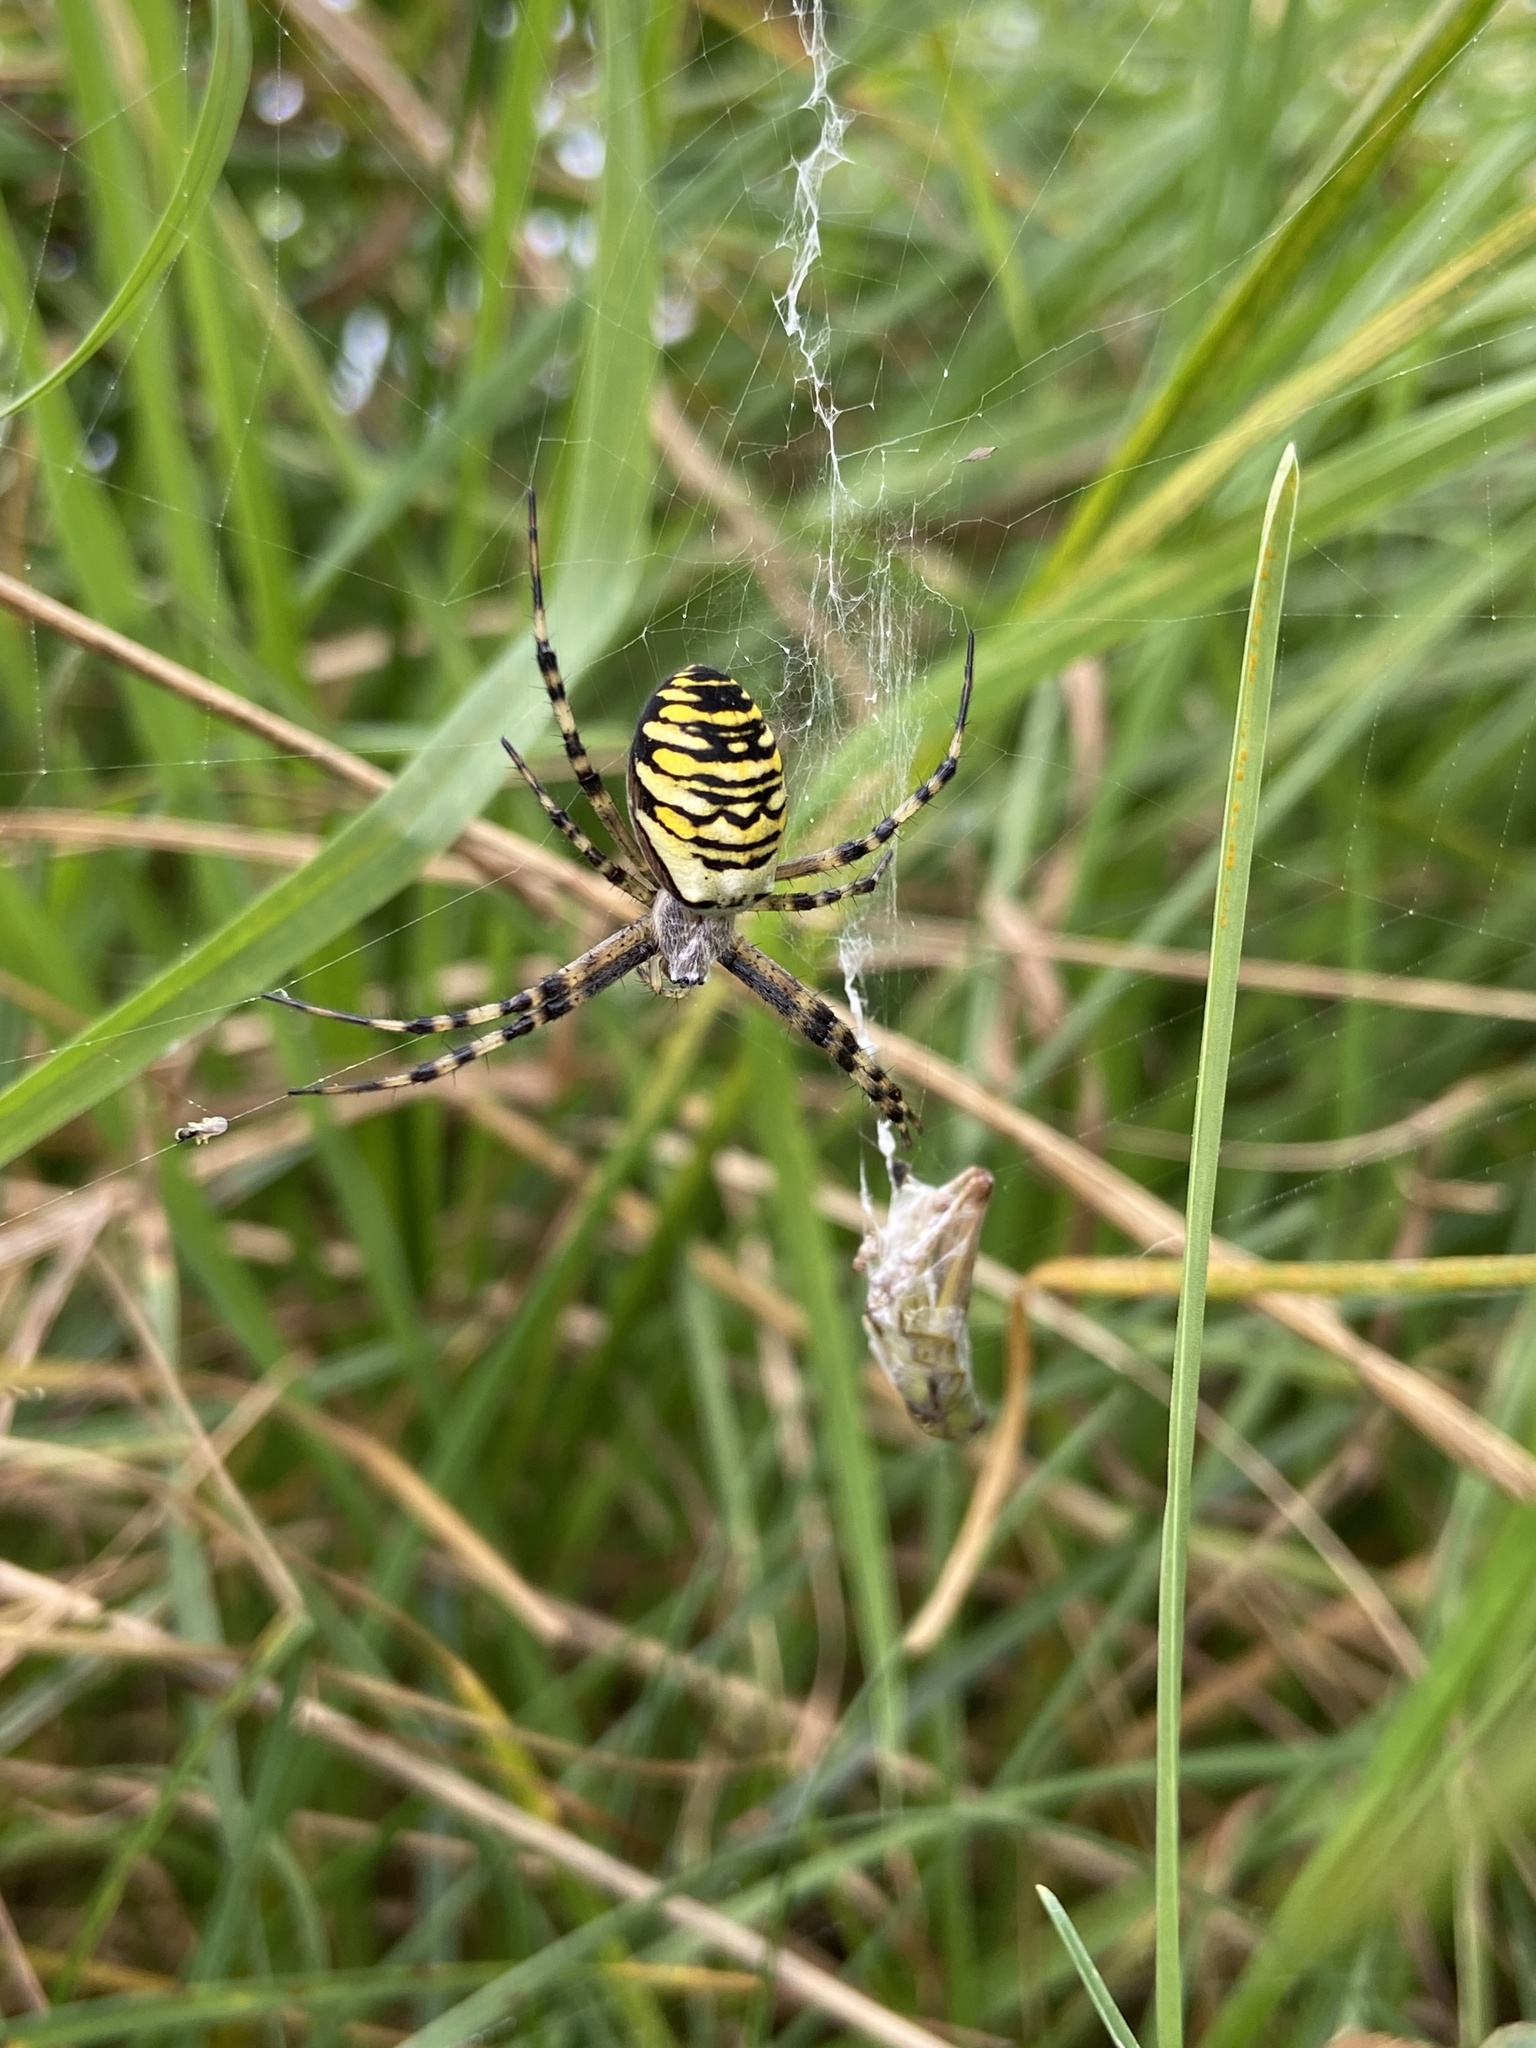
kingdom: Animalia
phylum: Arthropoda
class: Arachnida
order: Araneae
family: Araneidae
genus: Argiope
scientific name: Argiope bruennichi
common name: Wasp spider
